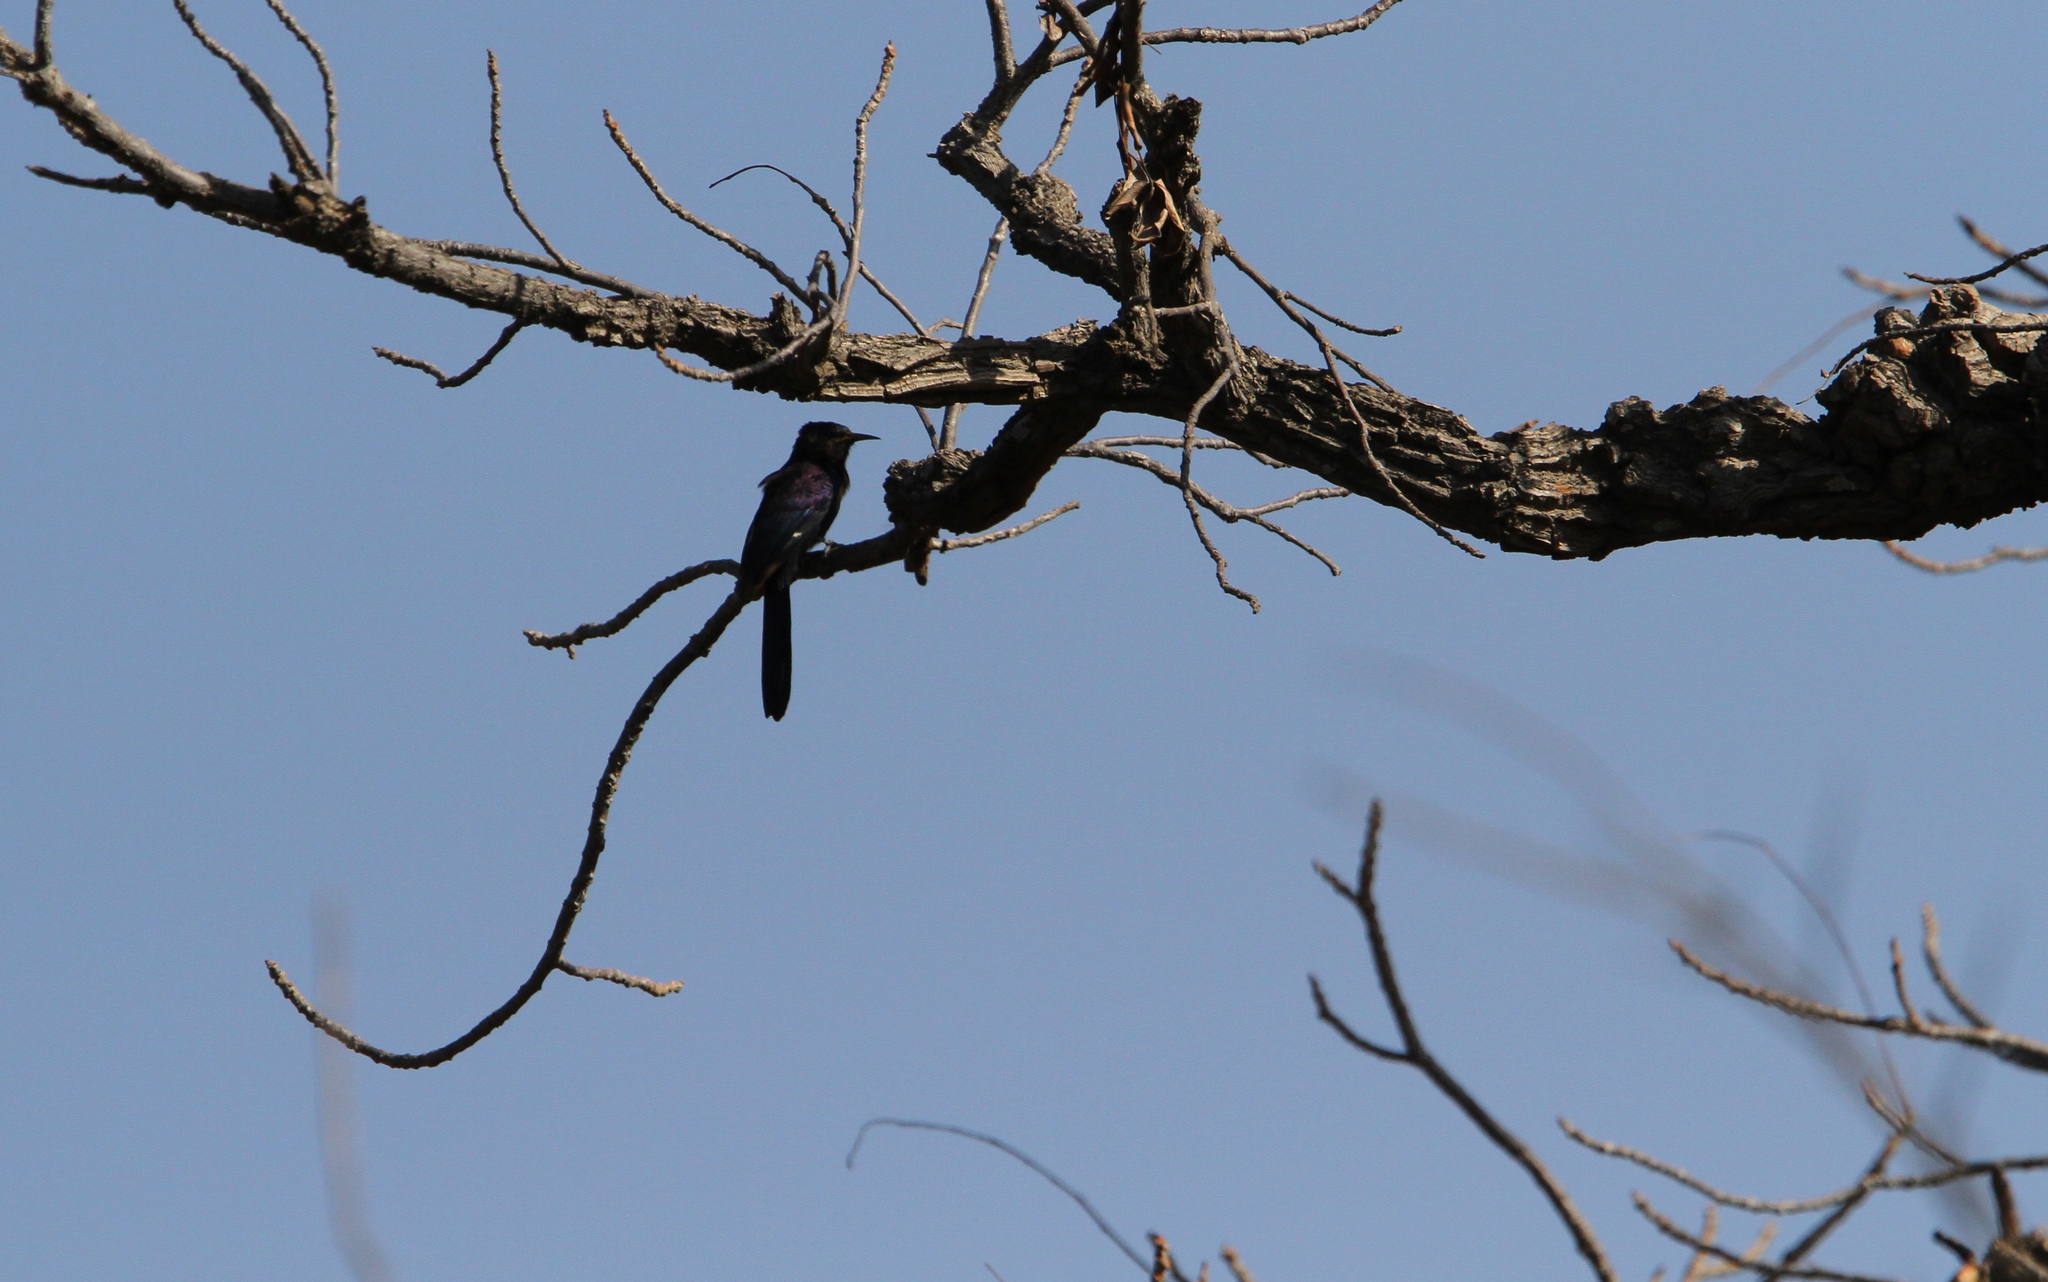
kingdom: Animalia
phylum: Chordata
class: Aves
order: Bucerotiformes
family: Phoeniculidae
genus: Rhinopomastus
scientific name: Rhinopomastus aterrimus
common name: Black scimitarbill
